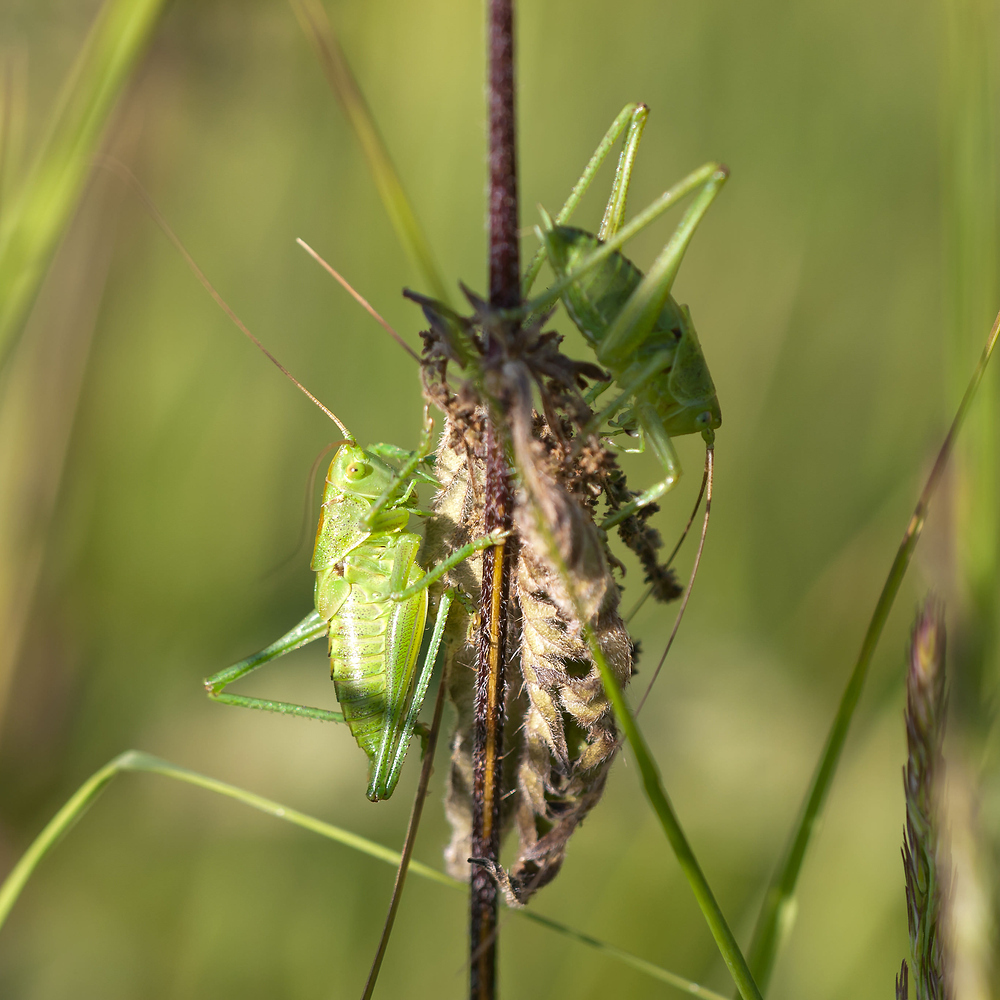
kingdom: Animalia
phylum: Arthropoda
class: Insecta
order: Orthoptera
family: Tettigoniidae
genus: Tettigonia
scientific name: Tettigonia viridissima
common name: Great green bush-cricket
